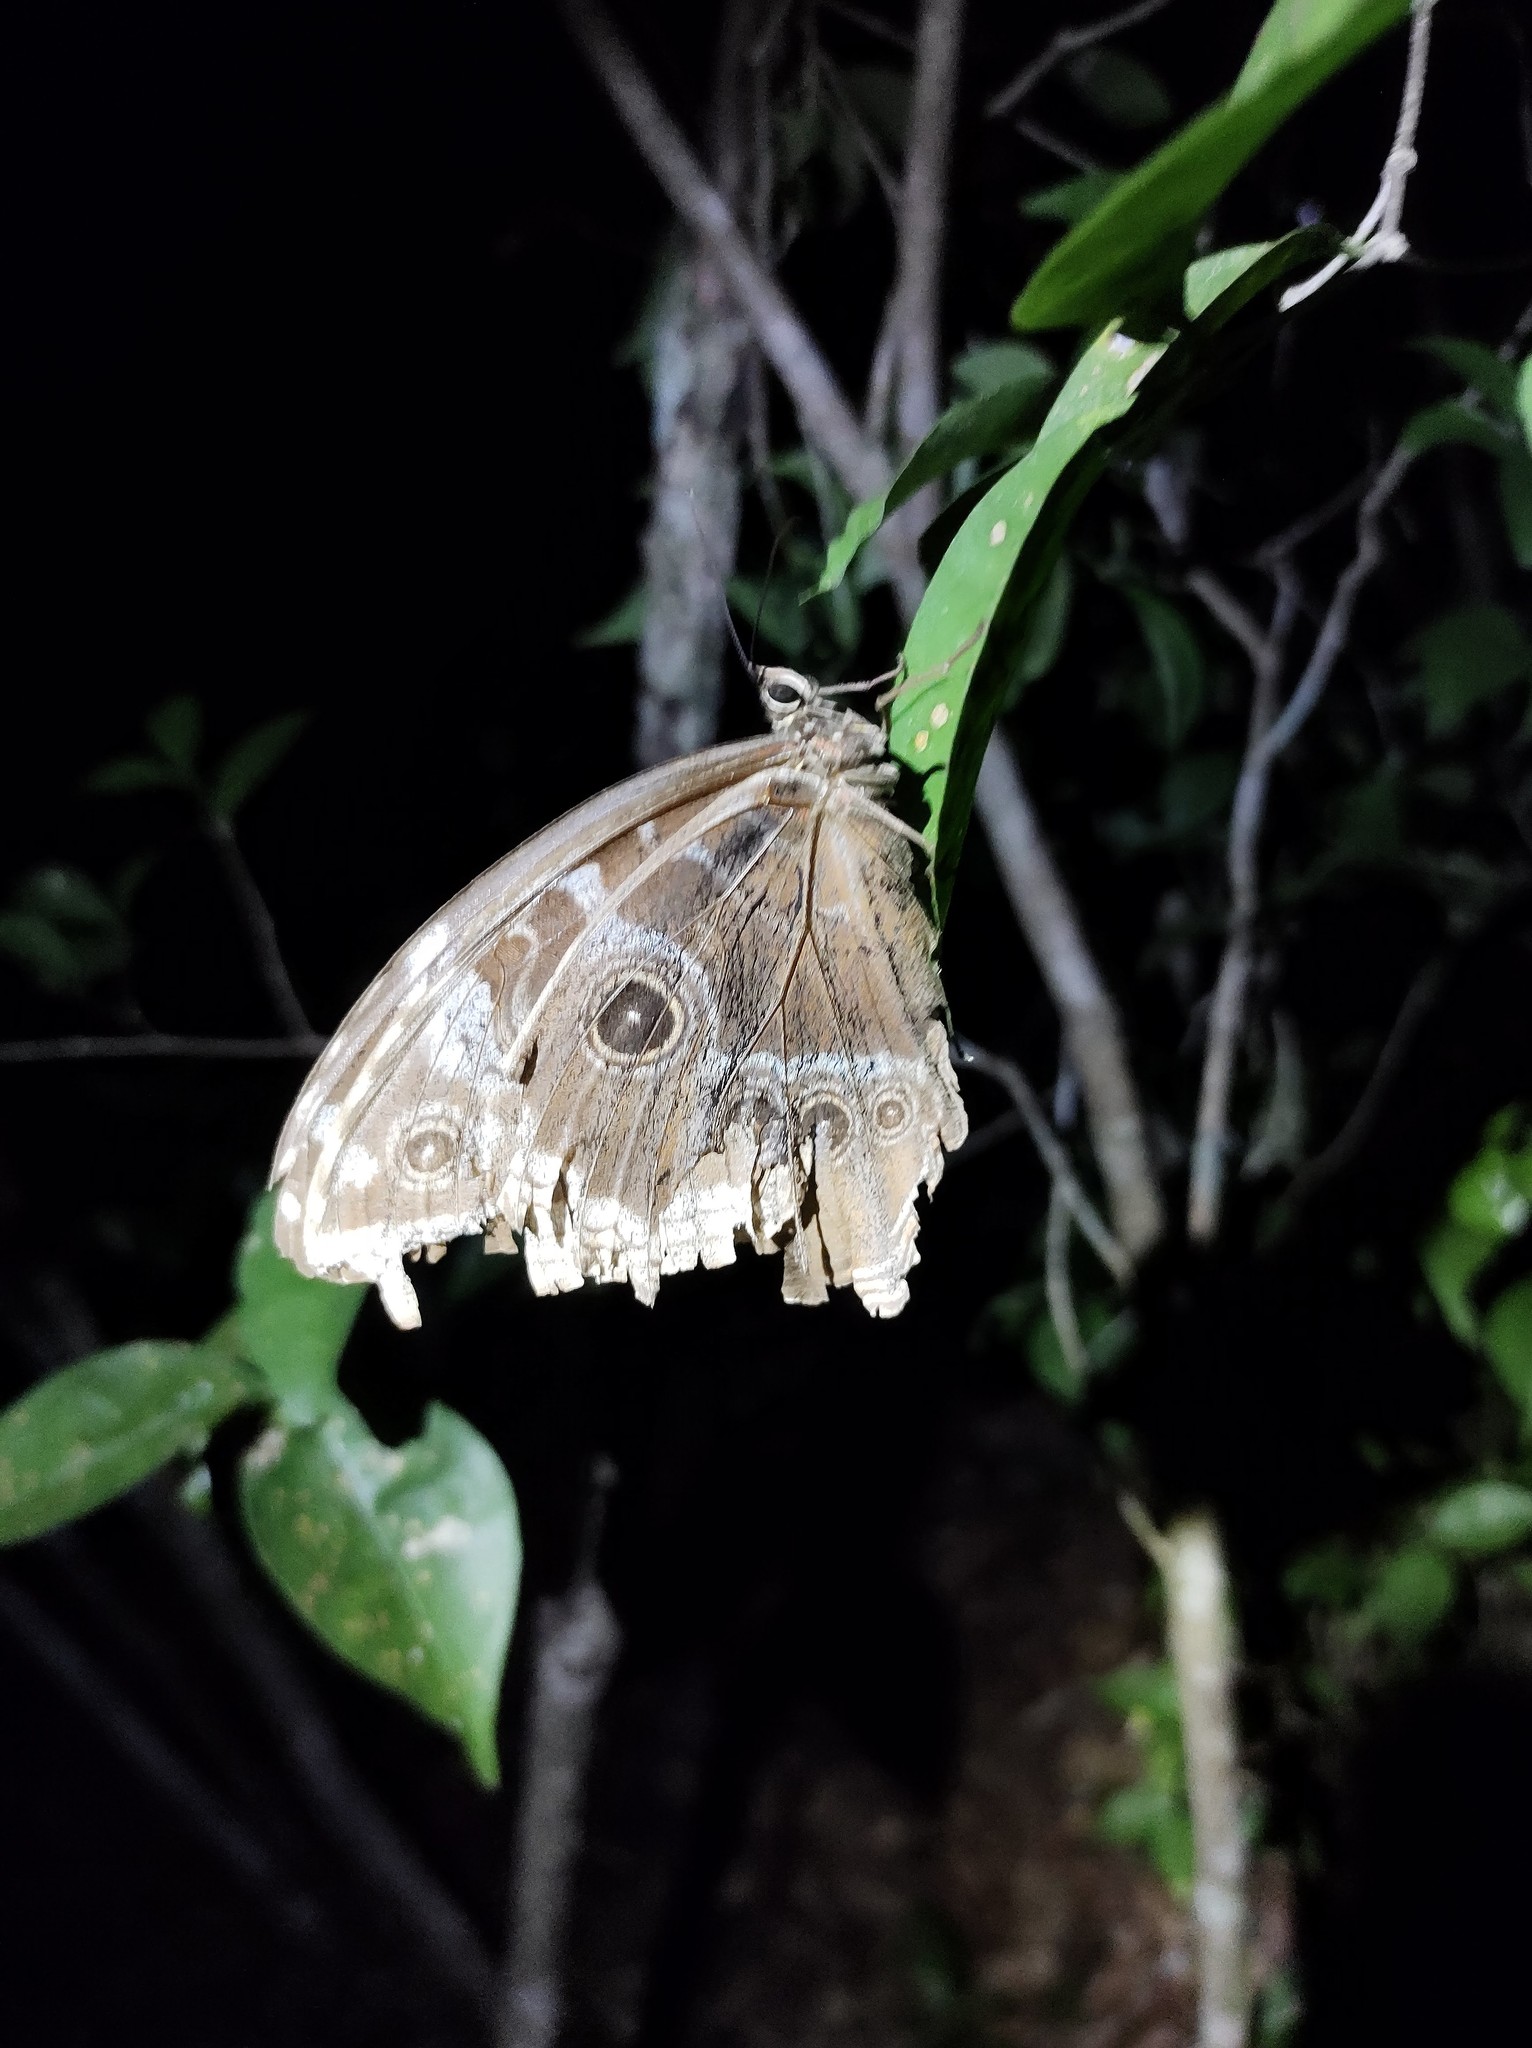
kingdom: Animalia
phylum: Arthropoda
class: Insecta
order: Lepidoptera
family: Nymphalidae
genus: Morpho
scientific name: Morpho helenor
